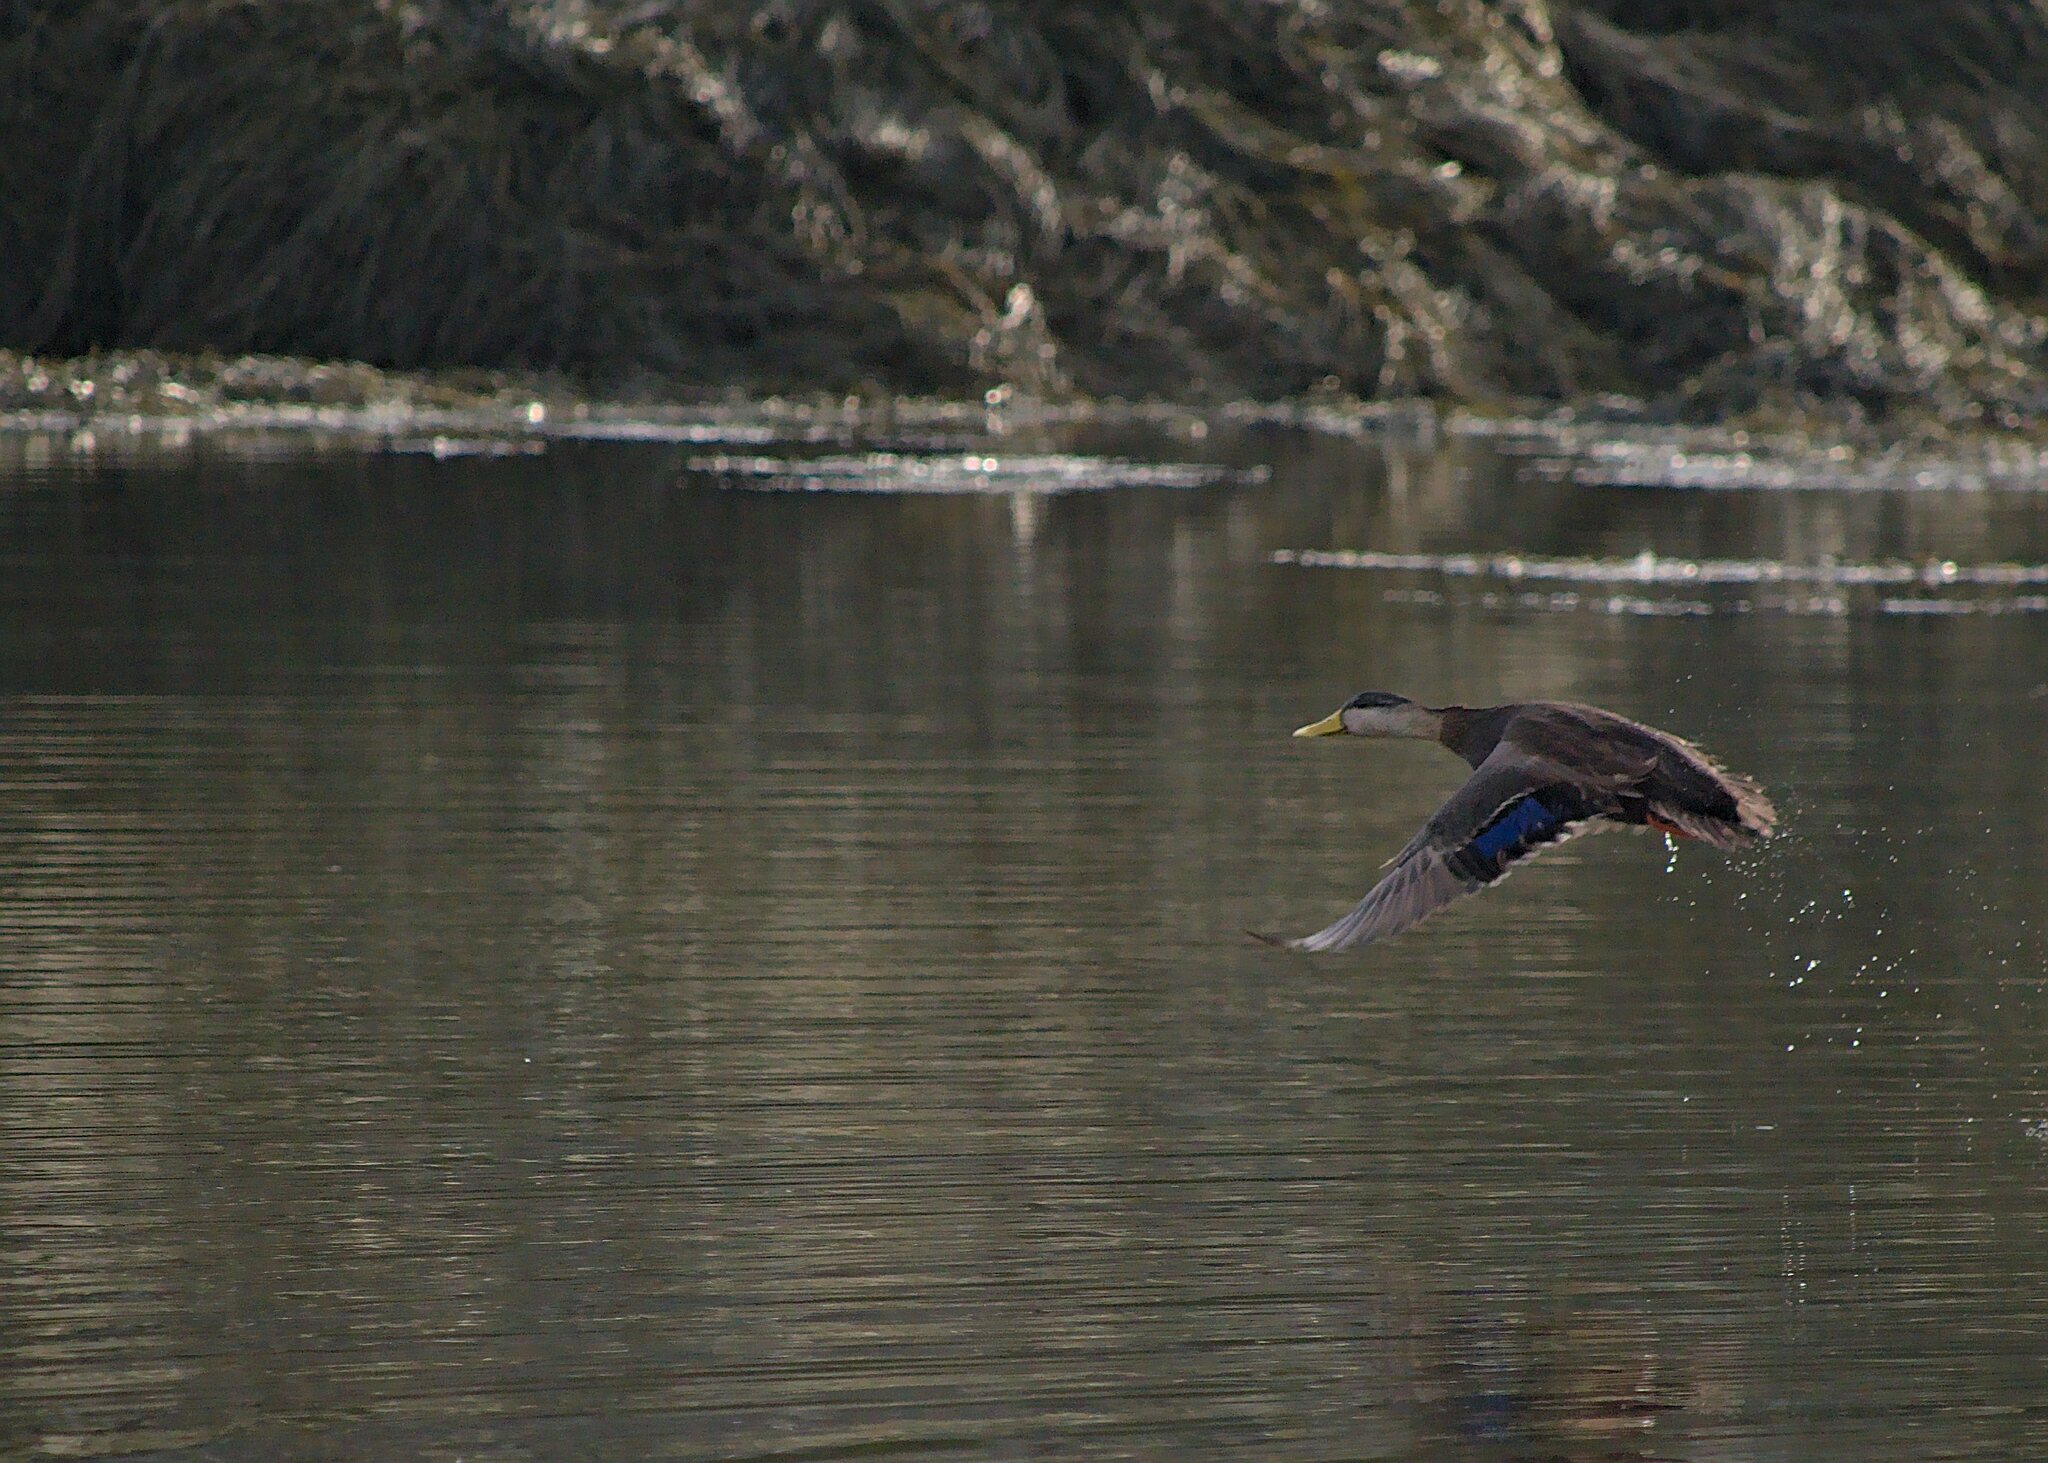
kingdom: Animalia
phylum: Chordata
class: Aves
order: Anseriformes
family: Anatidae
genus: Anas
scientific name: Anas rubripes
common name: American black duck
